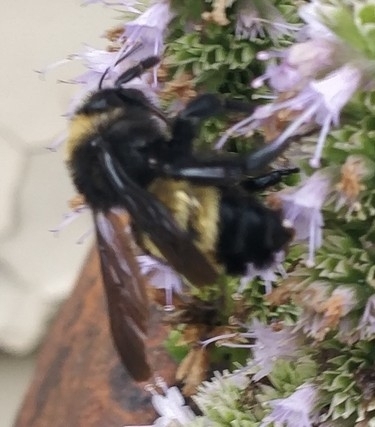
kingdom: Animalia
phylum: Arthropoda
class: Insecta
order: Hymenoptera
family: Apidae
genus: Bombus
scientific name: Bombus pensylvanicus
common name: Bumble bee
